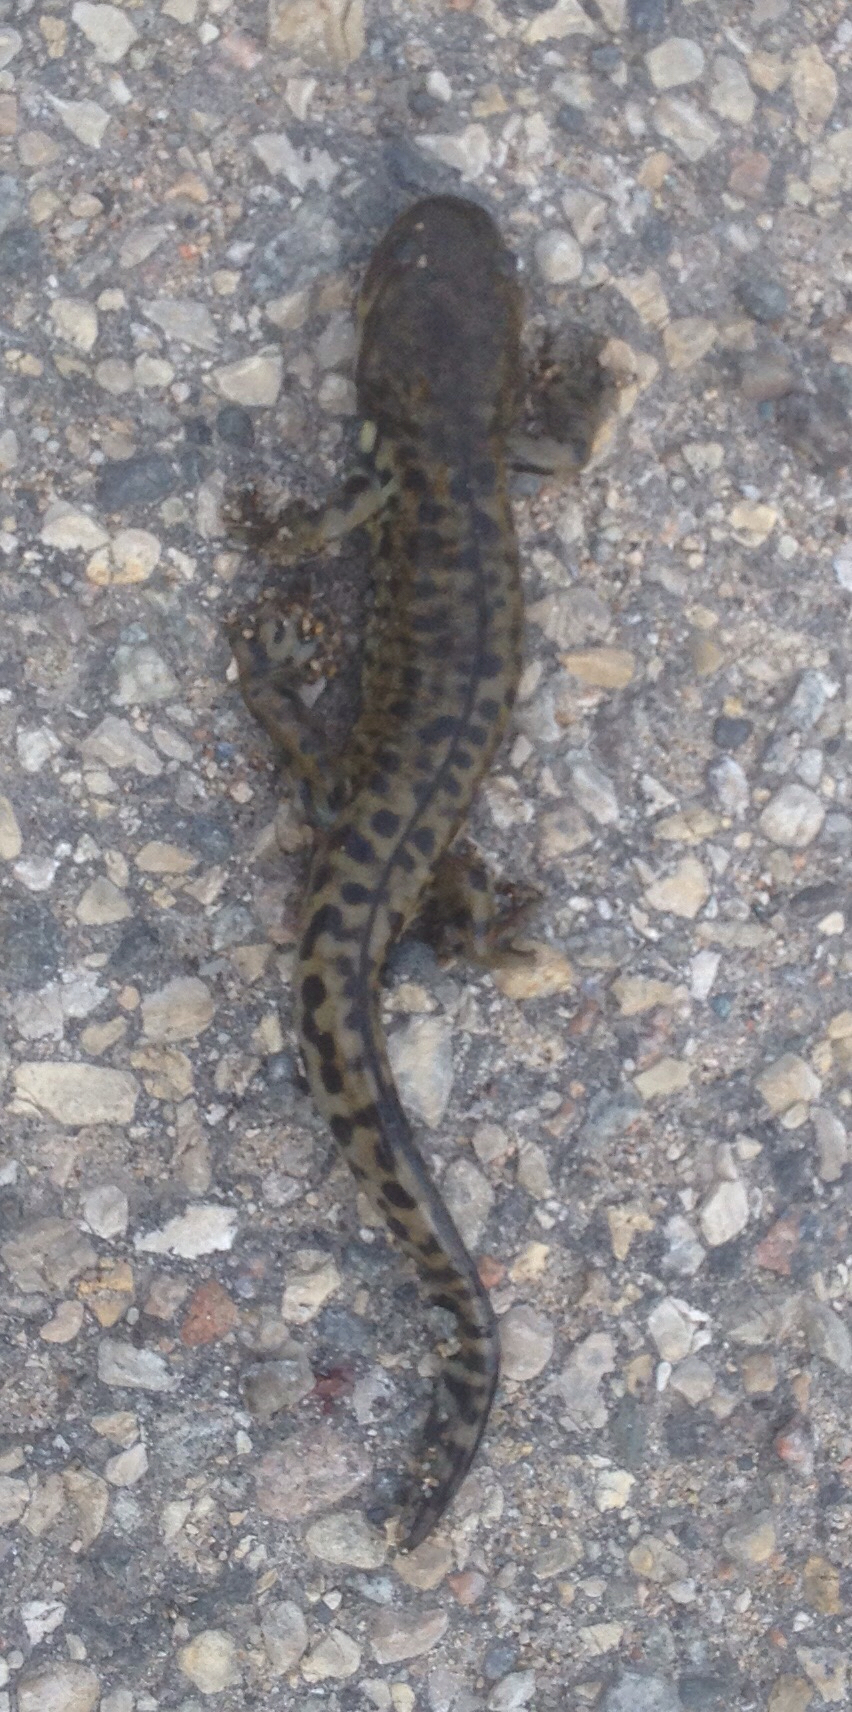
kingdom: Animalia
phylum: Chordata
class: Amphibia
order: Caudata
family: Ambystomatidae
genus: Ambystoma
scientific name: Ambystoma mavortium
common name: Western tiger salamander
